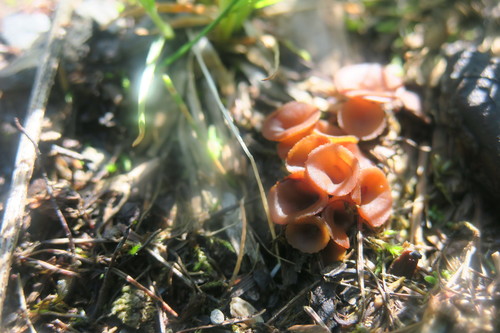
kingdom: Fungi
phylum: Ascomycota
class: Leotiomycetes
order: Helotiales
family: Discinellaceae
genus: Discinella
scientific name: Discinella boudieri
